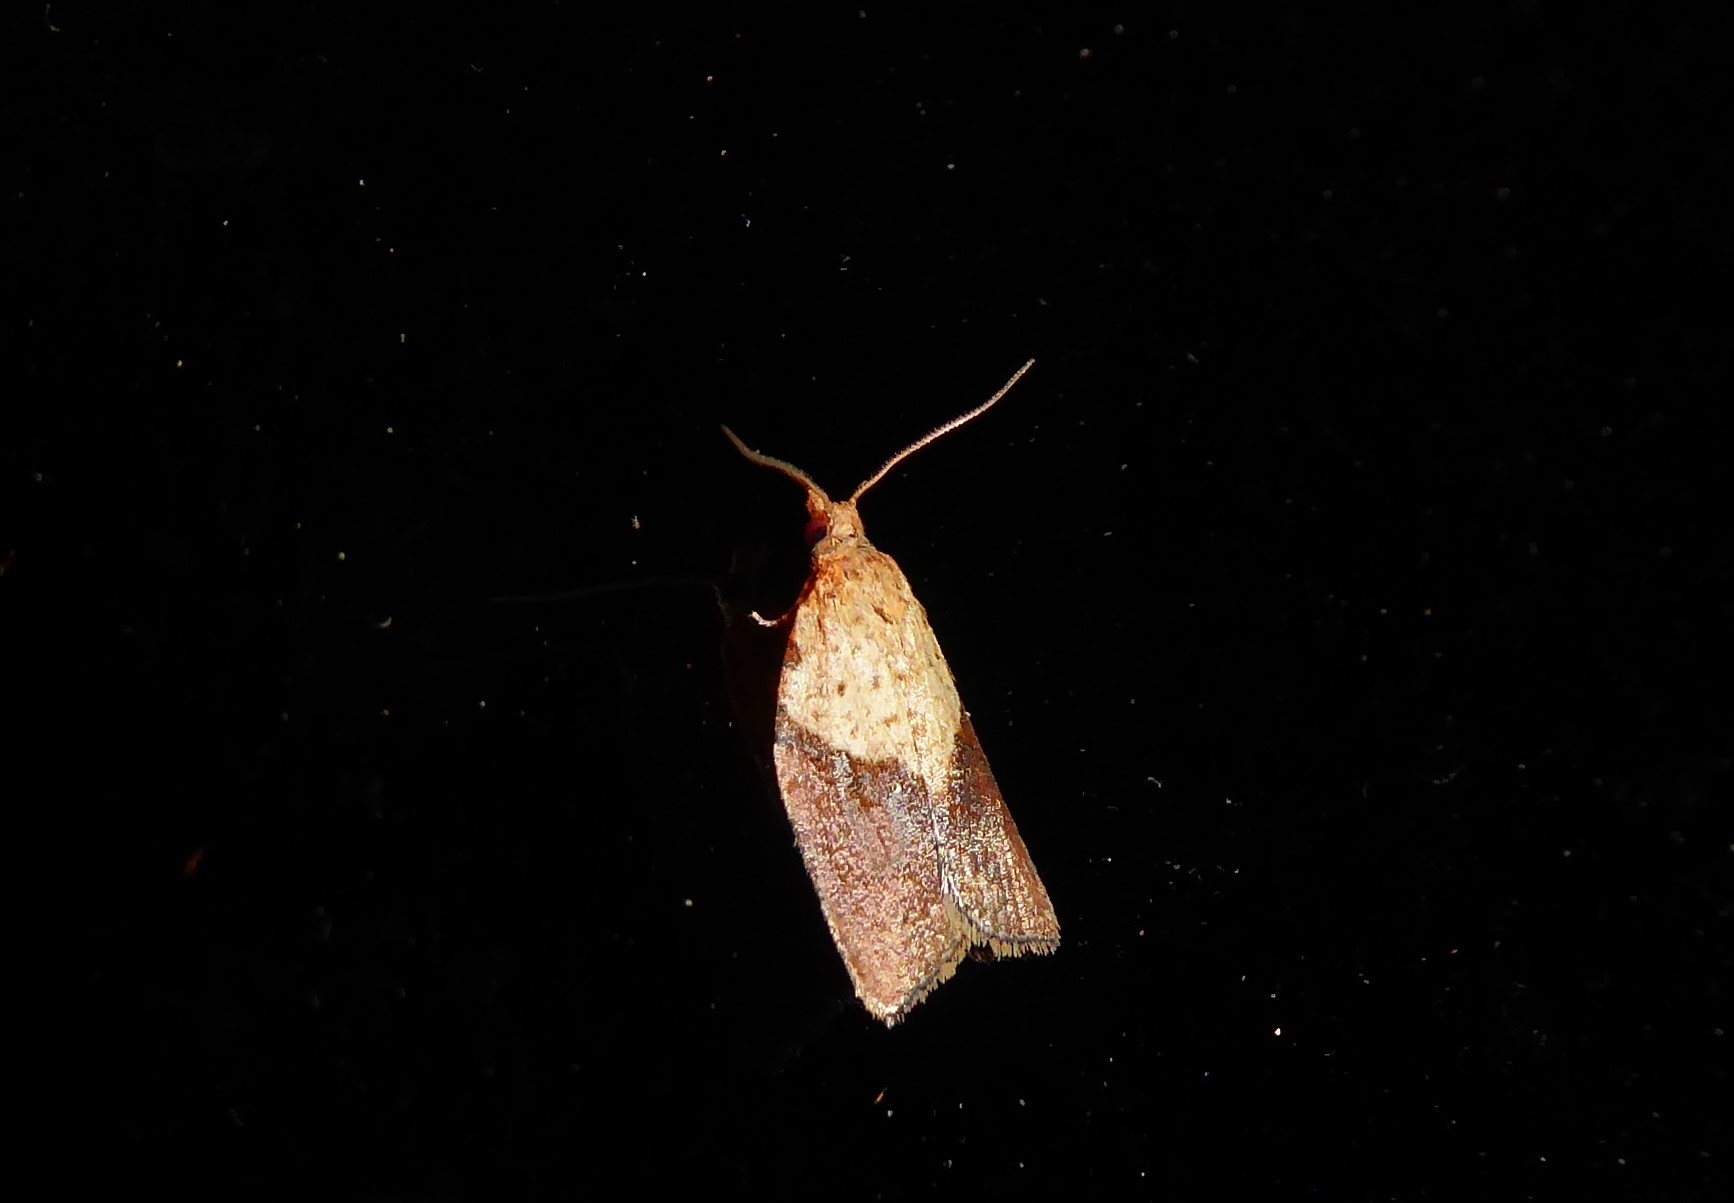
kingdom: Animalia
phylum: Arthropoda
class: Insecta
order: Lepidoptera
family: Tortricidae
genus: Epiphyas
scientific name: Epiphyas postvittana
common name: Light brown apple moth
